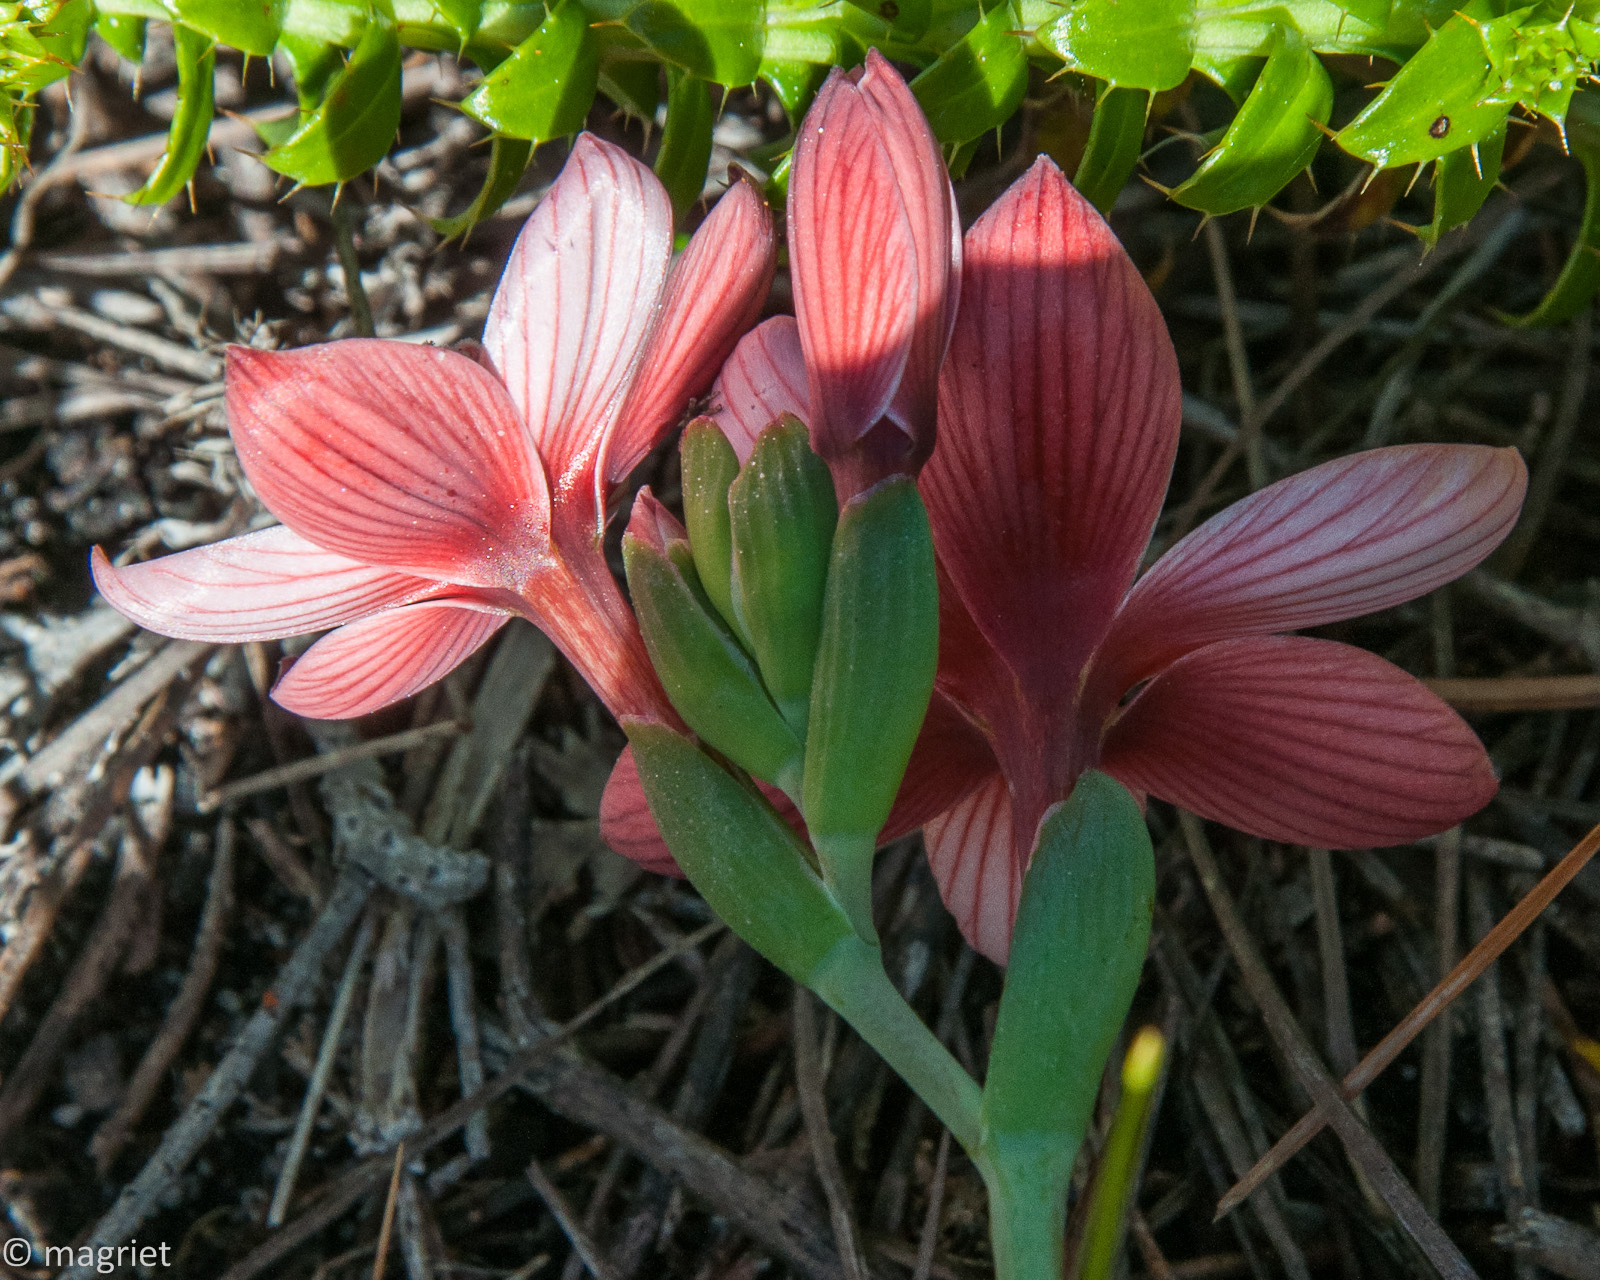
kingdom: Plantae
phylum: Tracheophyta
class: Liliopsida
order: Asparagales
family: Iridaceae
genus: Geissorhiza
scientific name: Geissorhiza ovata
